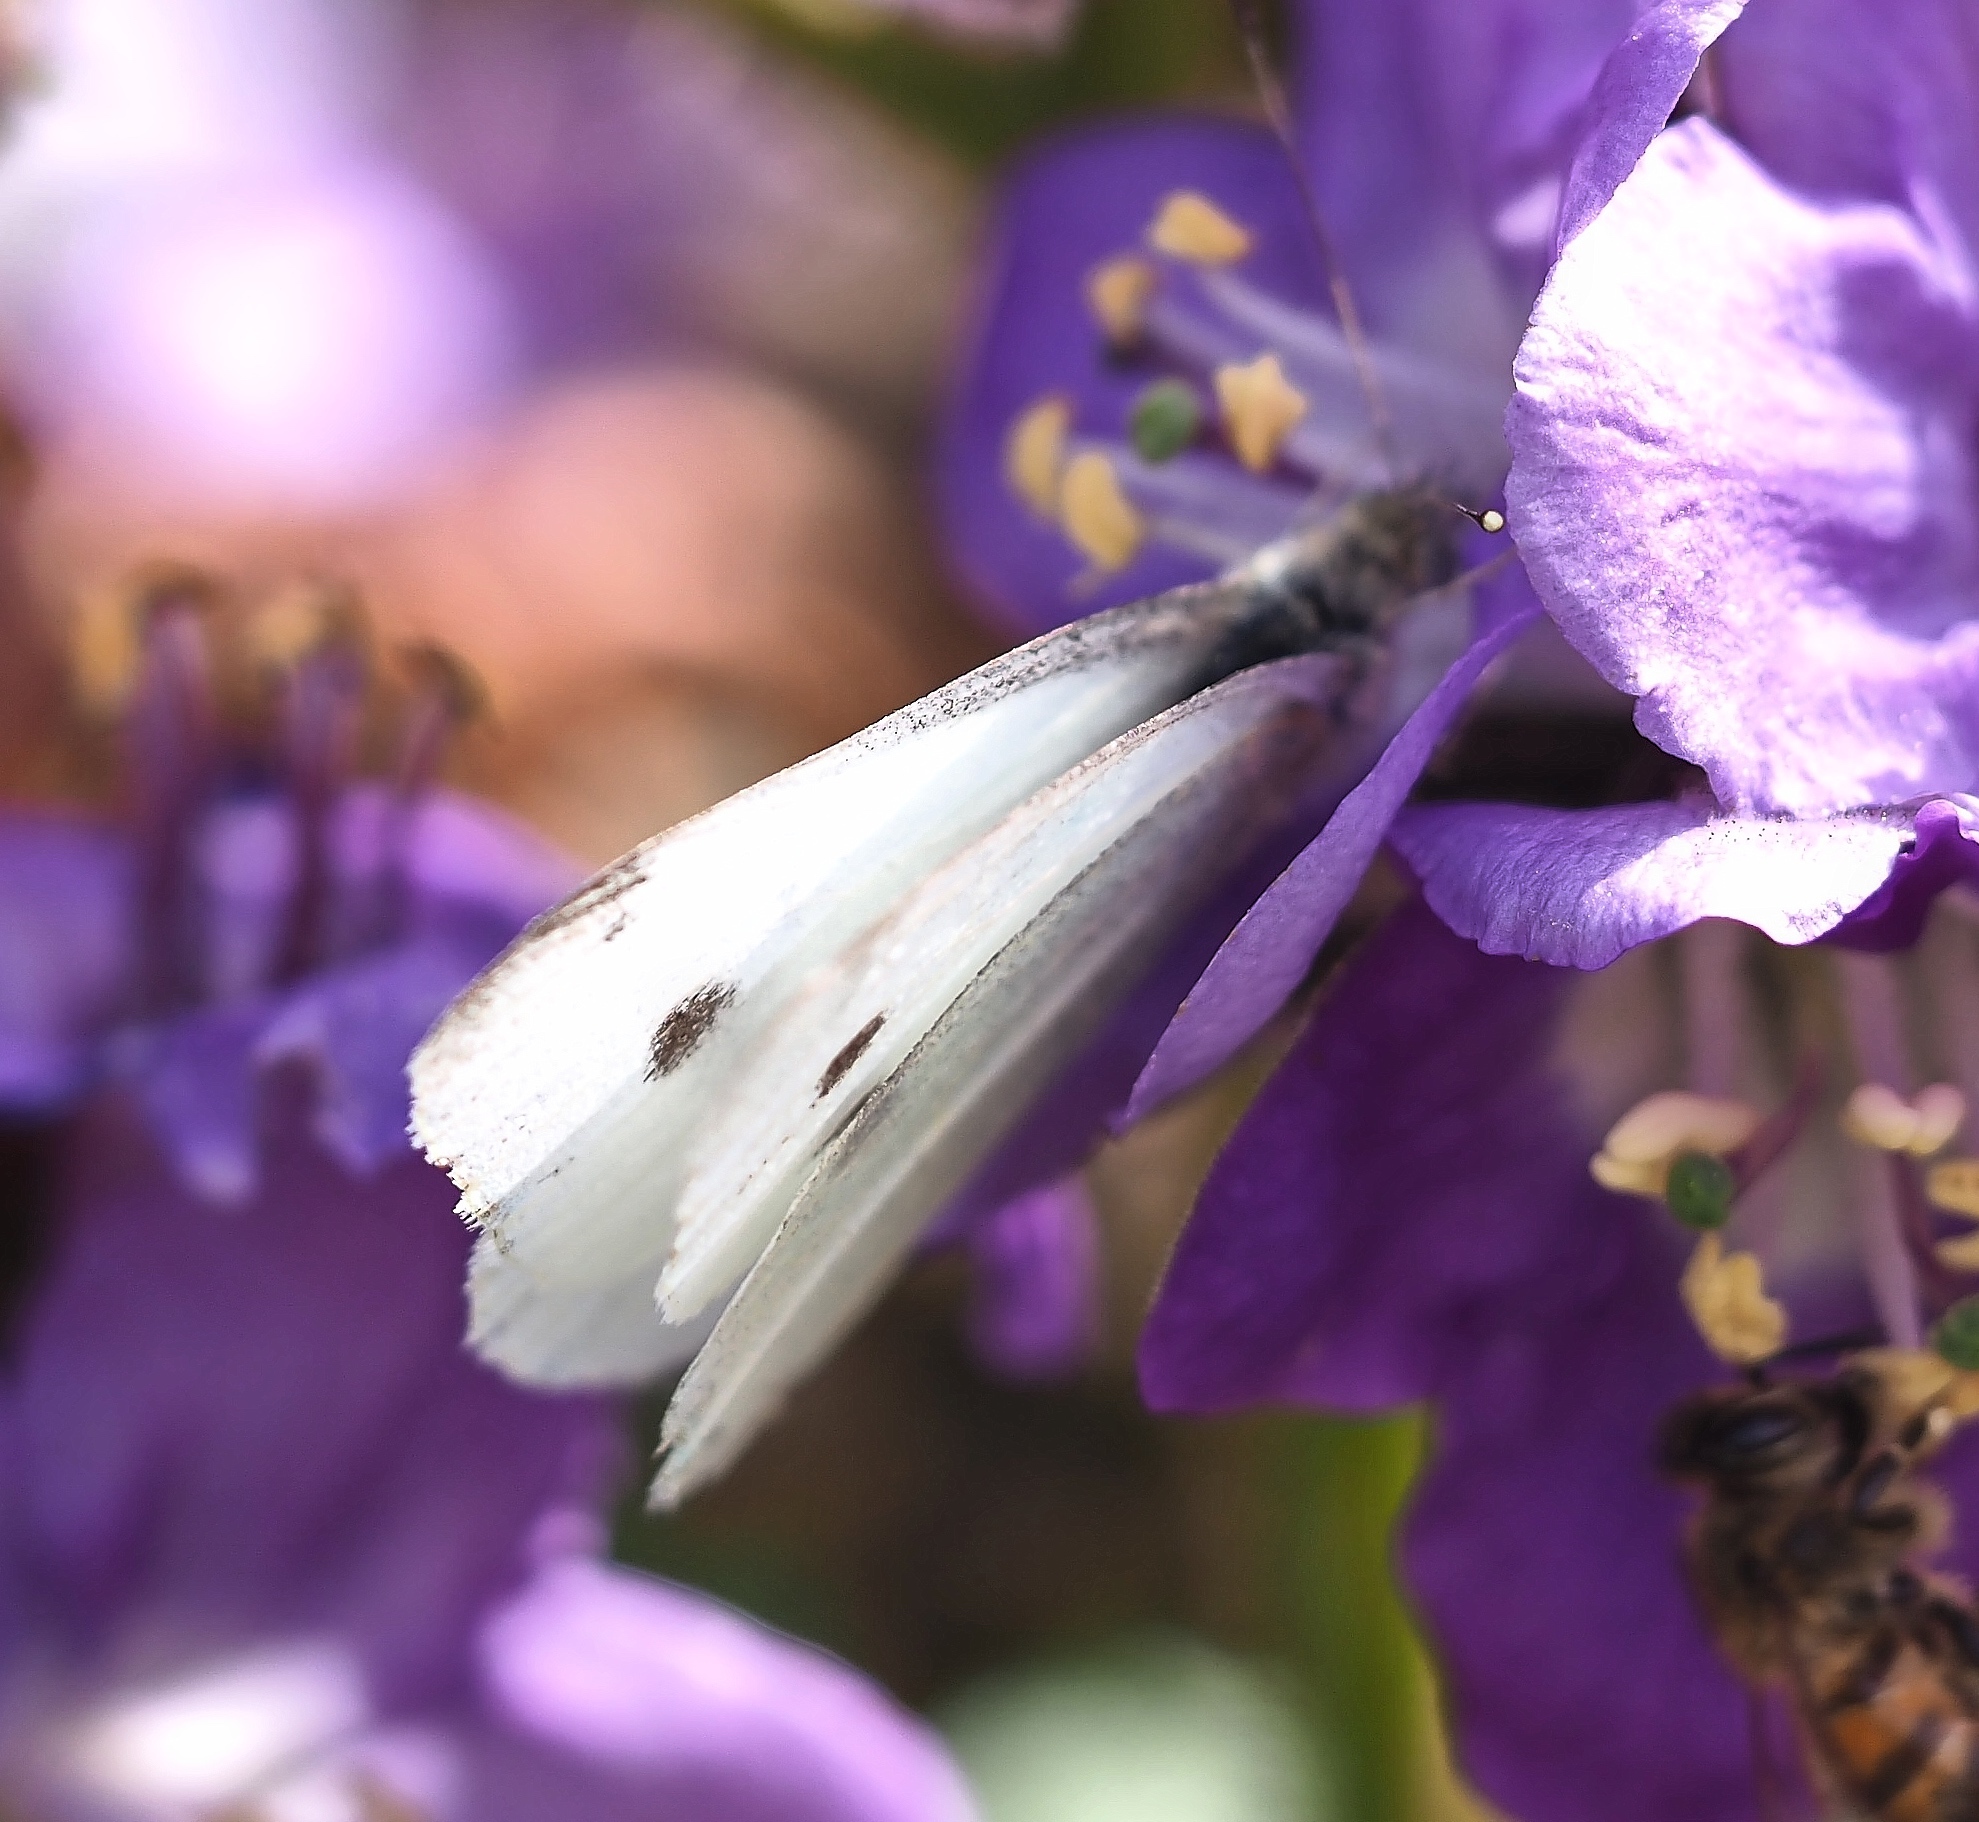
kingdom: Animalia
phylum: Arthropoda
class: Insecta
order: Lepidoptera
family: Pieridae
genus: Pieris
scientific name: Pieris rapae
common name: Small white
